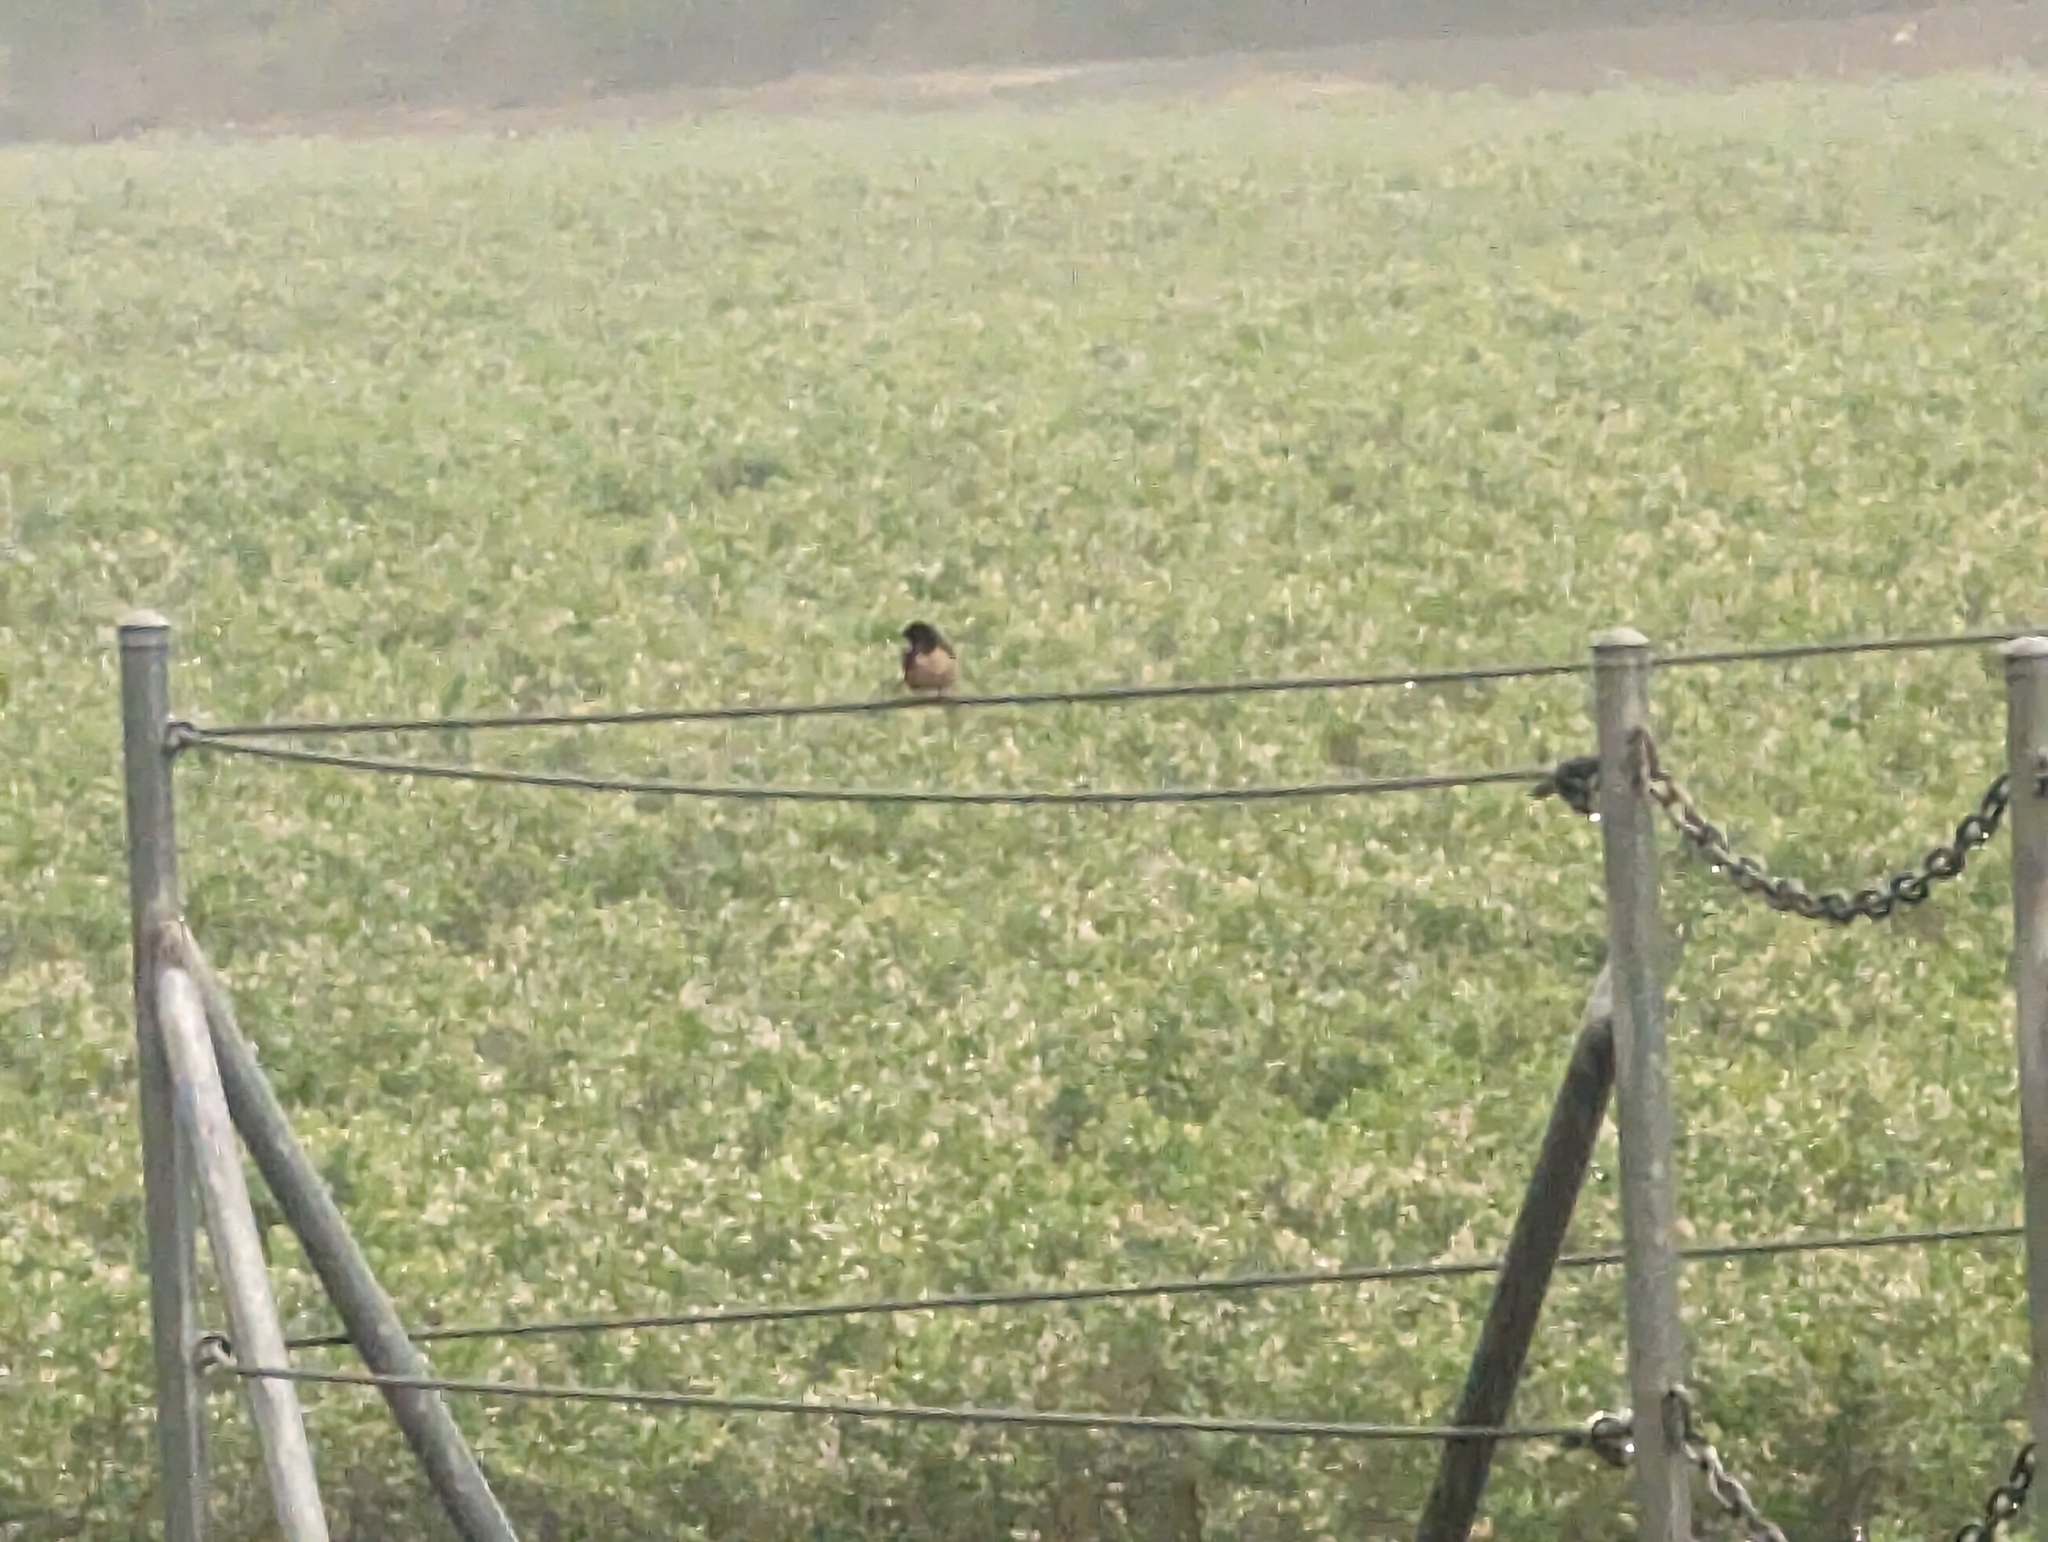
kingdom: Animalia
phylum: Chordata
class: Aves
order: Passeriformes
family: Hirundinidae
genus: Hirundo
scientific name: Hirundo rustica
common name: Barn swallow
